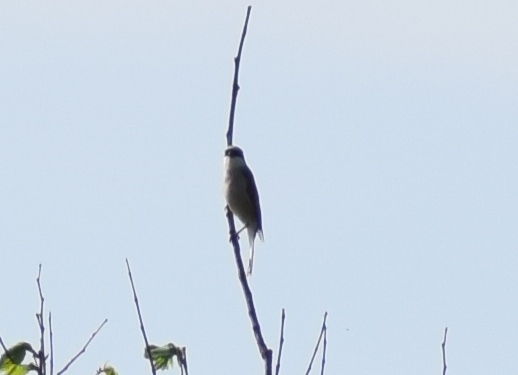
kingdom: Animalia
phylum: Chordata
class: Aves
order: Passeriformes
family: Laniidae
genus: Lanius
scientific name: Lanius collurio
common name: Red-backed shrike
